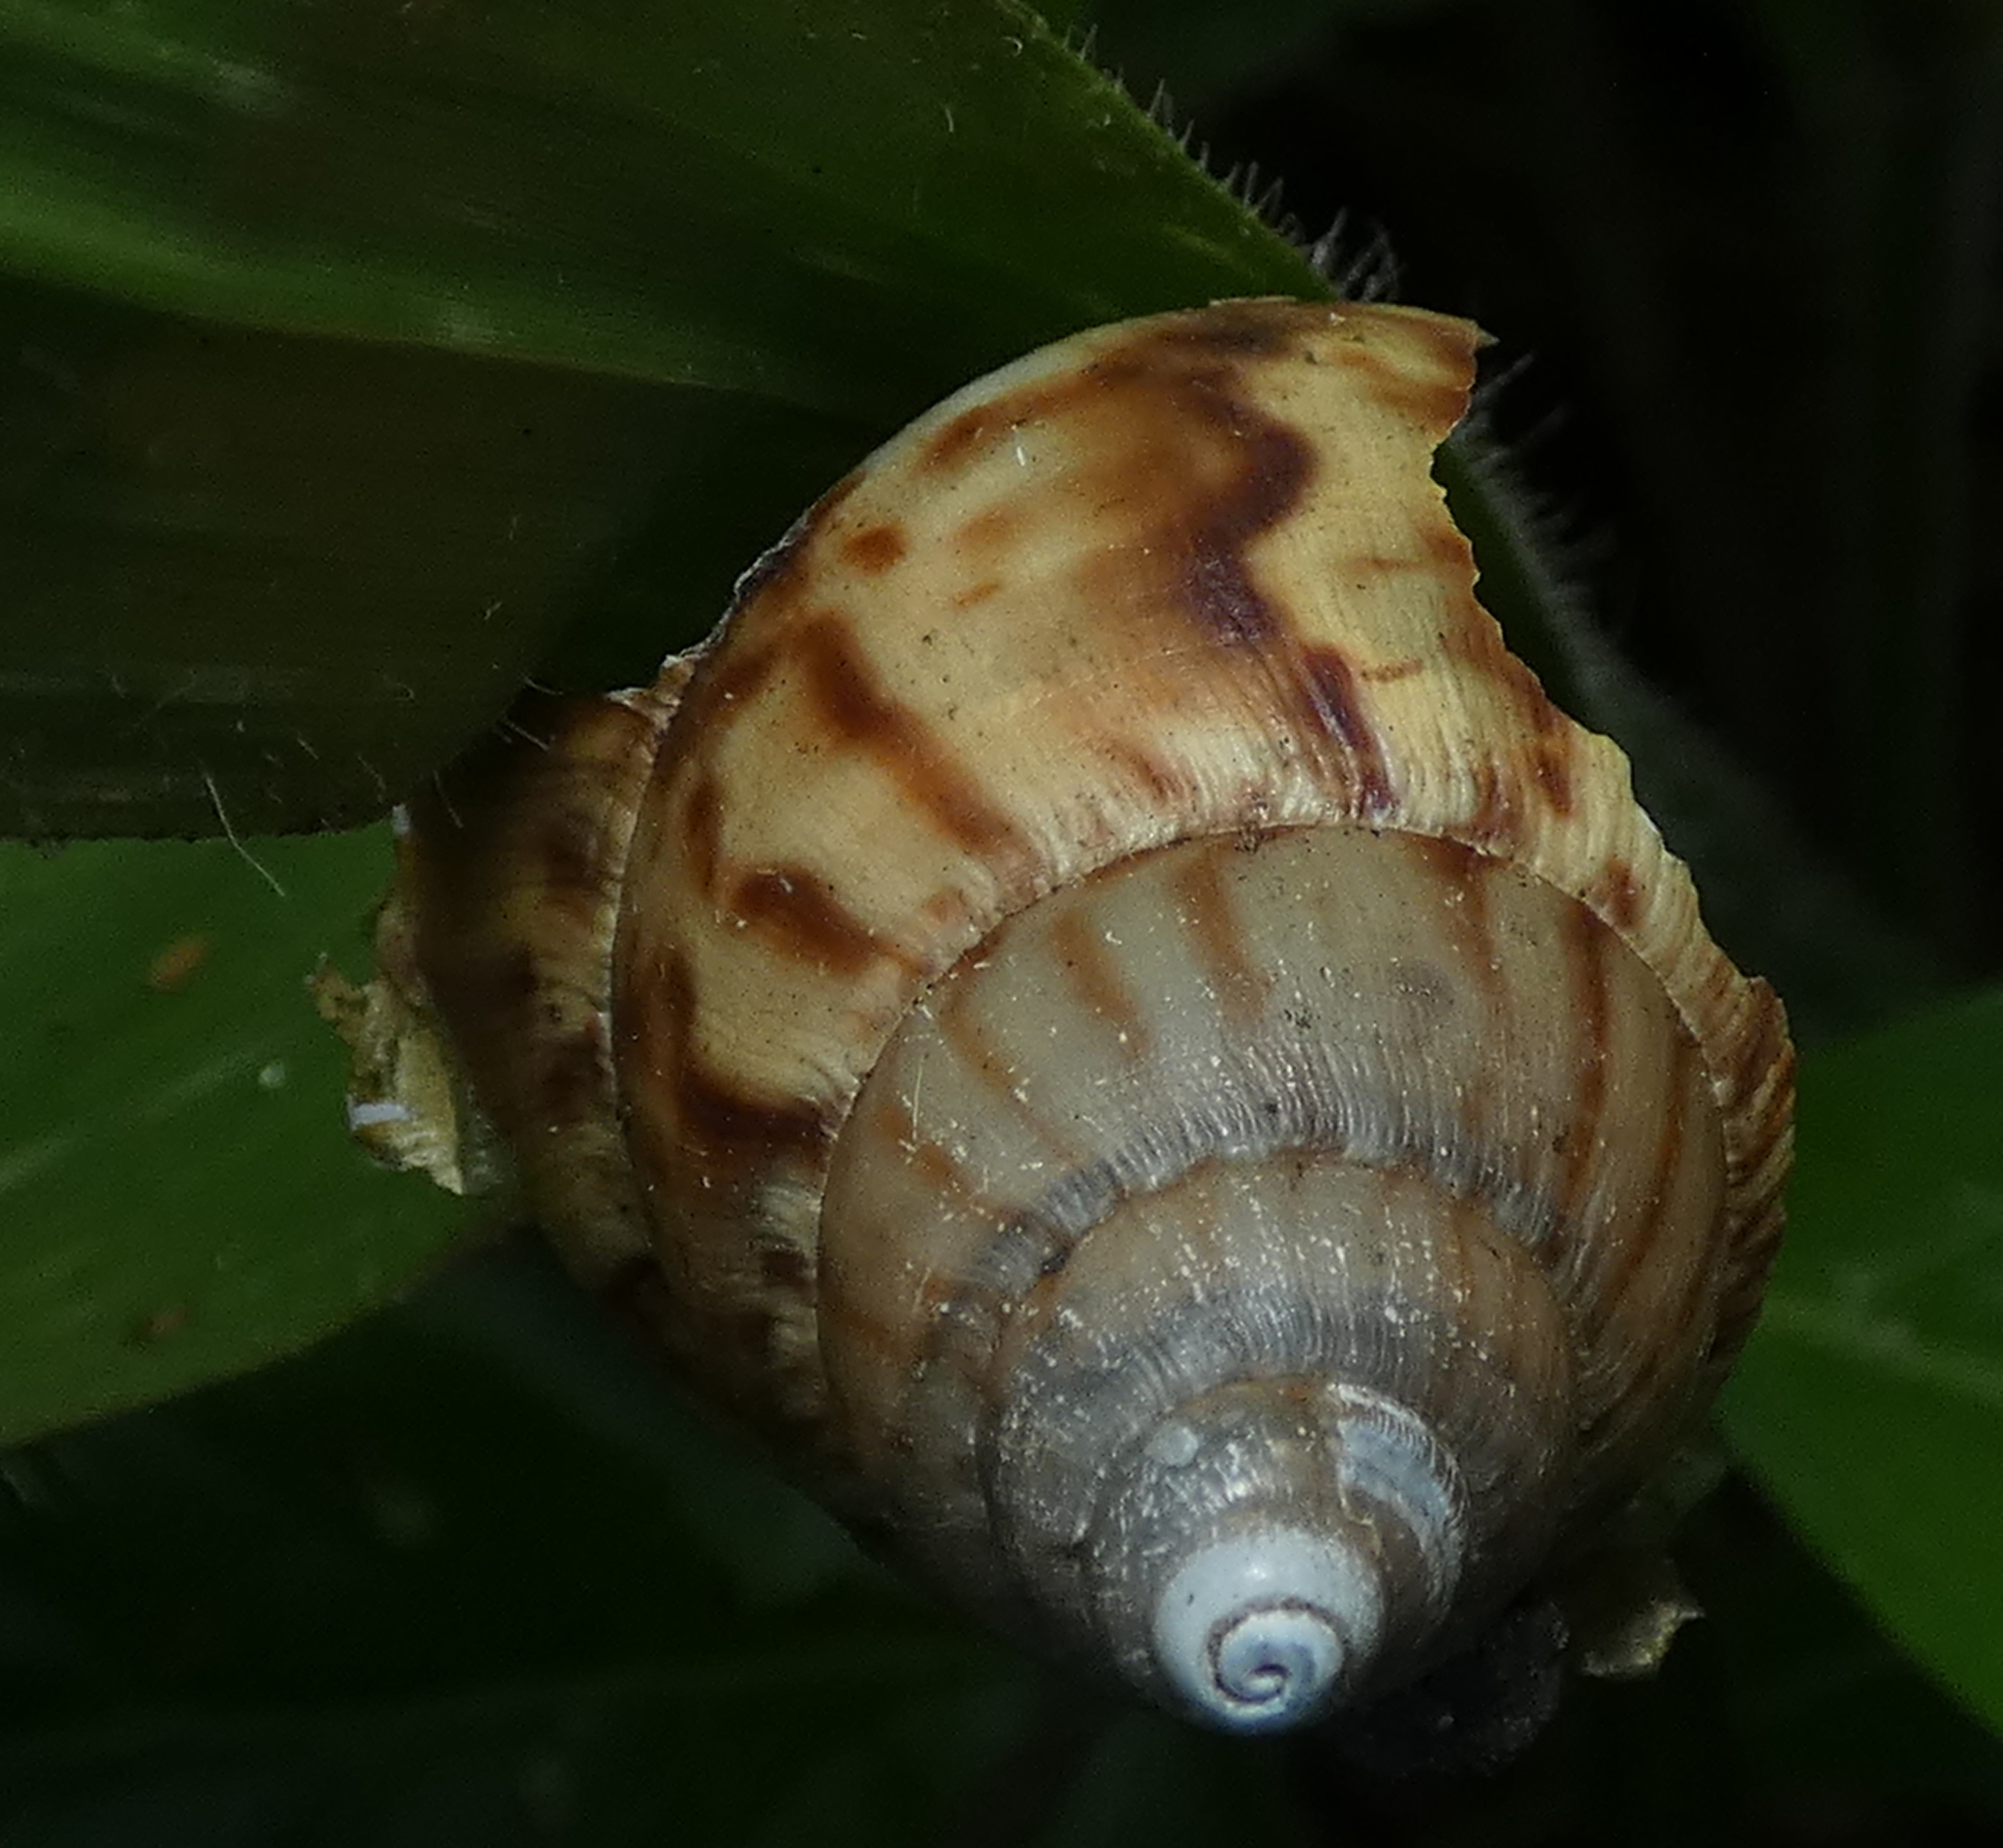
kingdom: Animalia
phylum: Mollusca
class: Gastropoda
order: Stylommatophora
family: Achatinidae
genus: Lissachatina
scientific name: Lissachatina fulica
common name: Giant african snail
